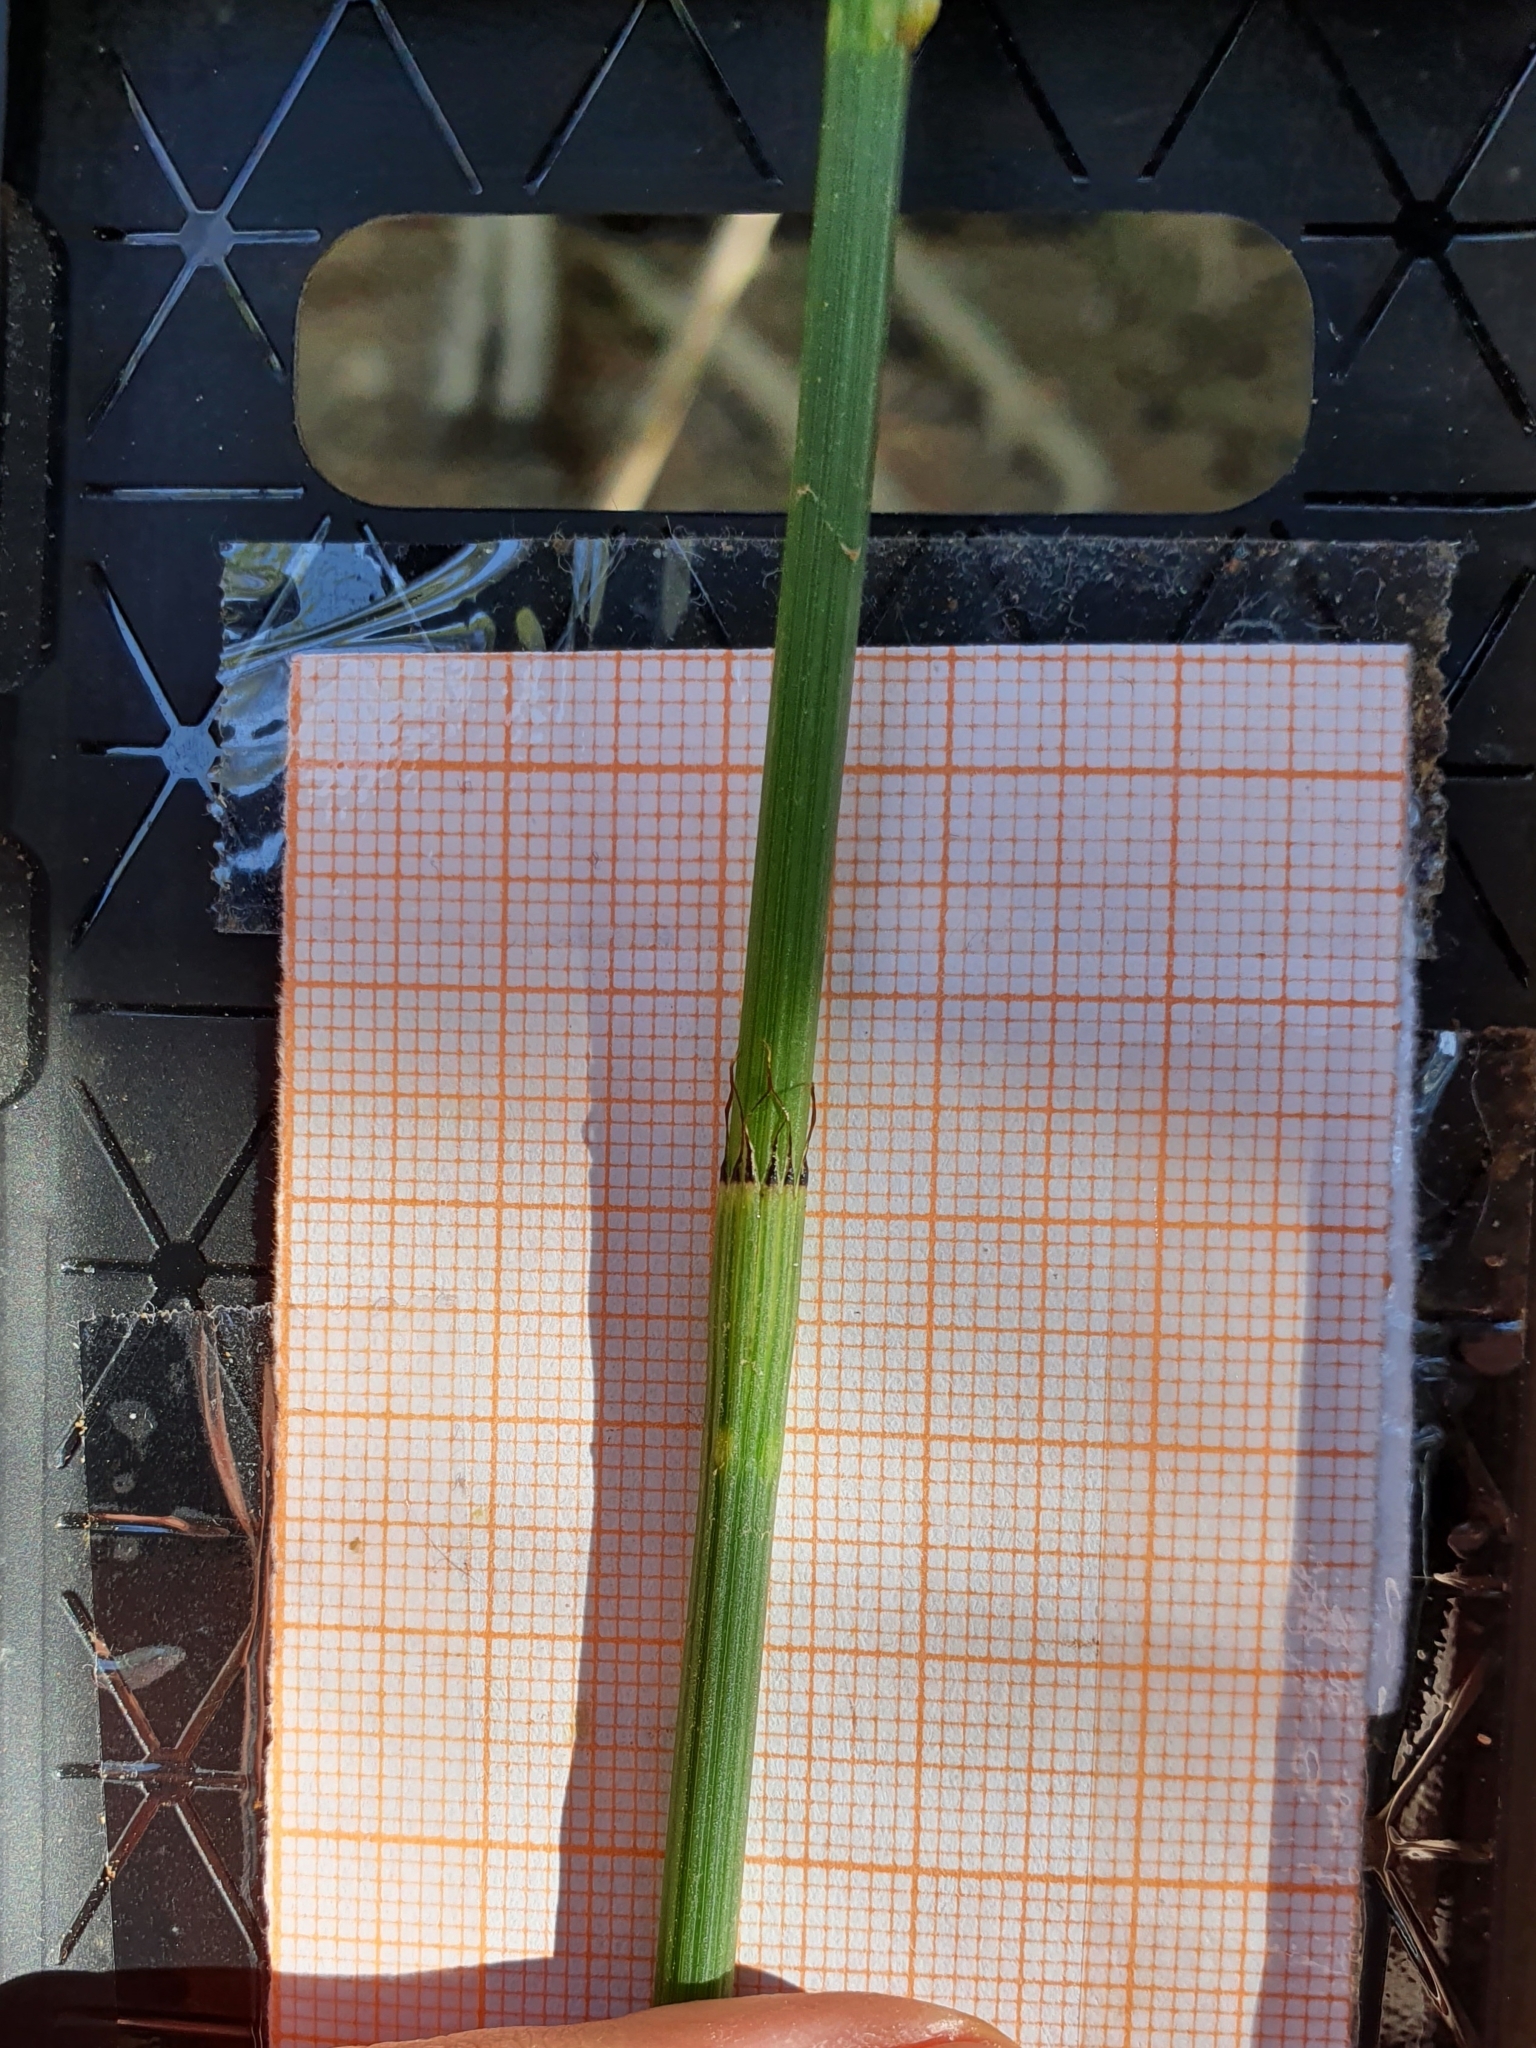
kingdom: Plantae
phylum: Tracheophyta
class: Polypodiopsida
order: Equisetales
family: Equisetaceae
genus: Equisetum
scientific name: Equisetum ramosissimum
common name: Branched horsetail
